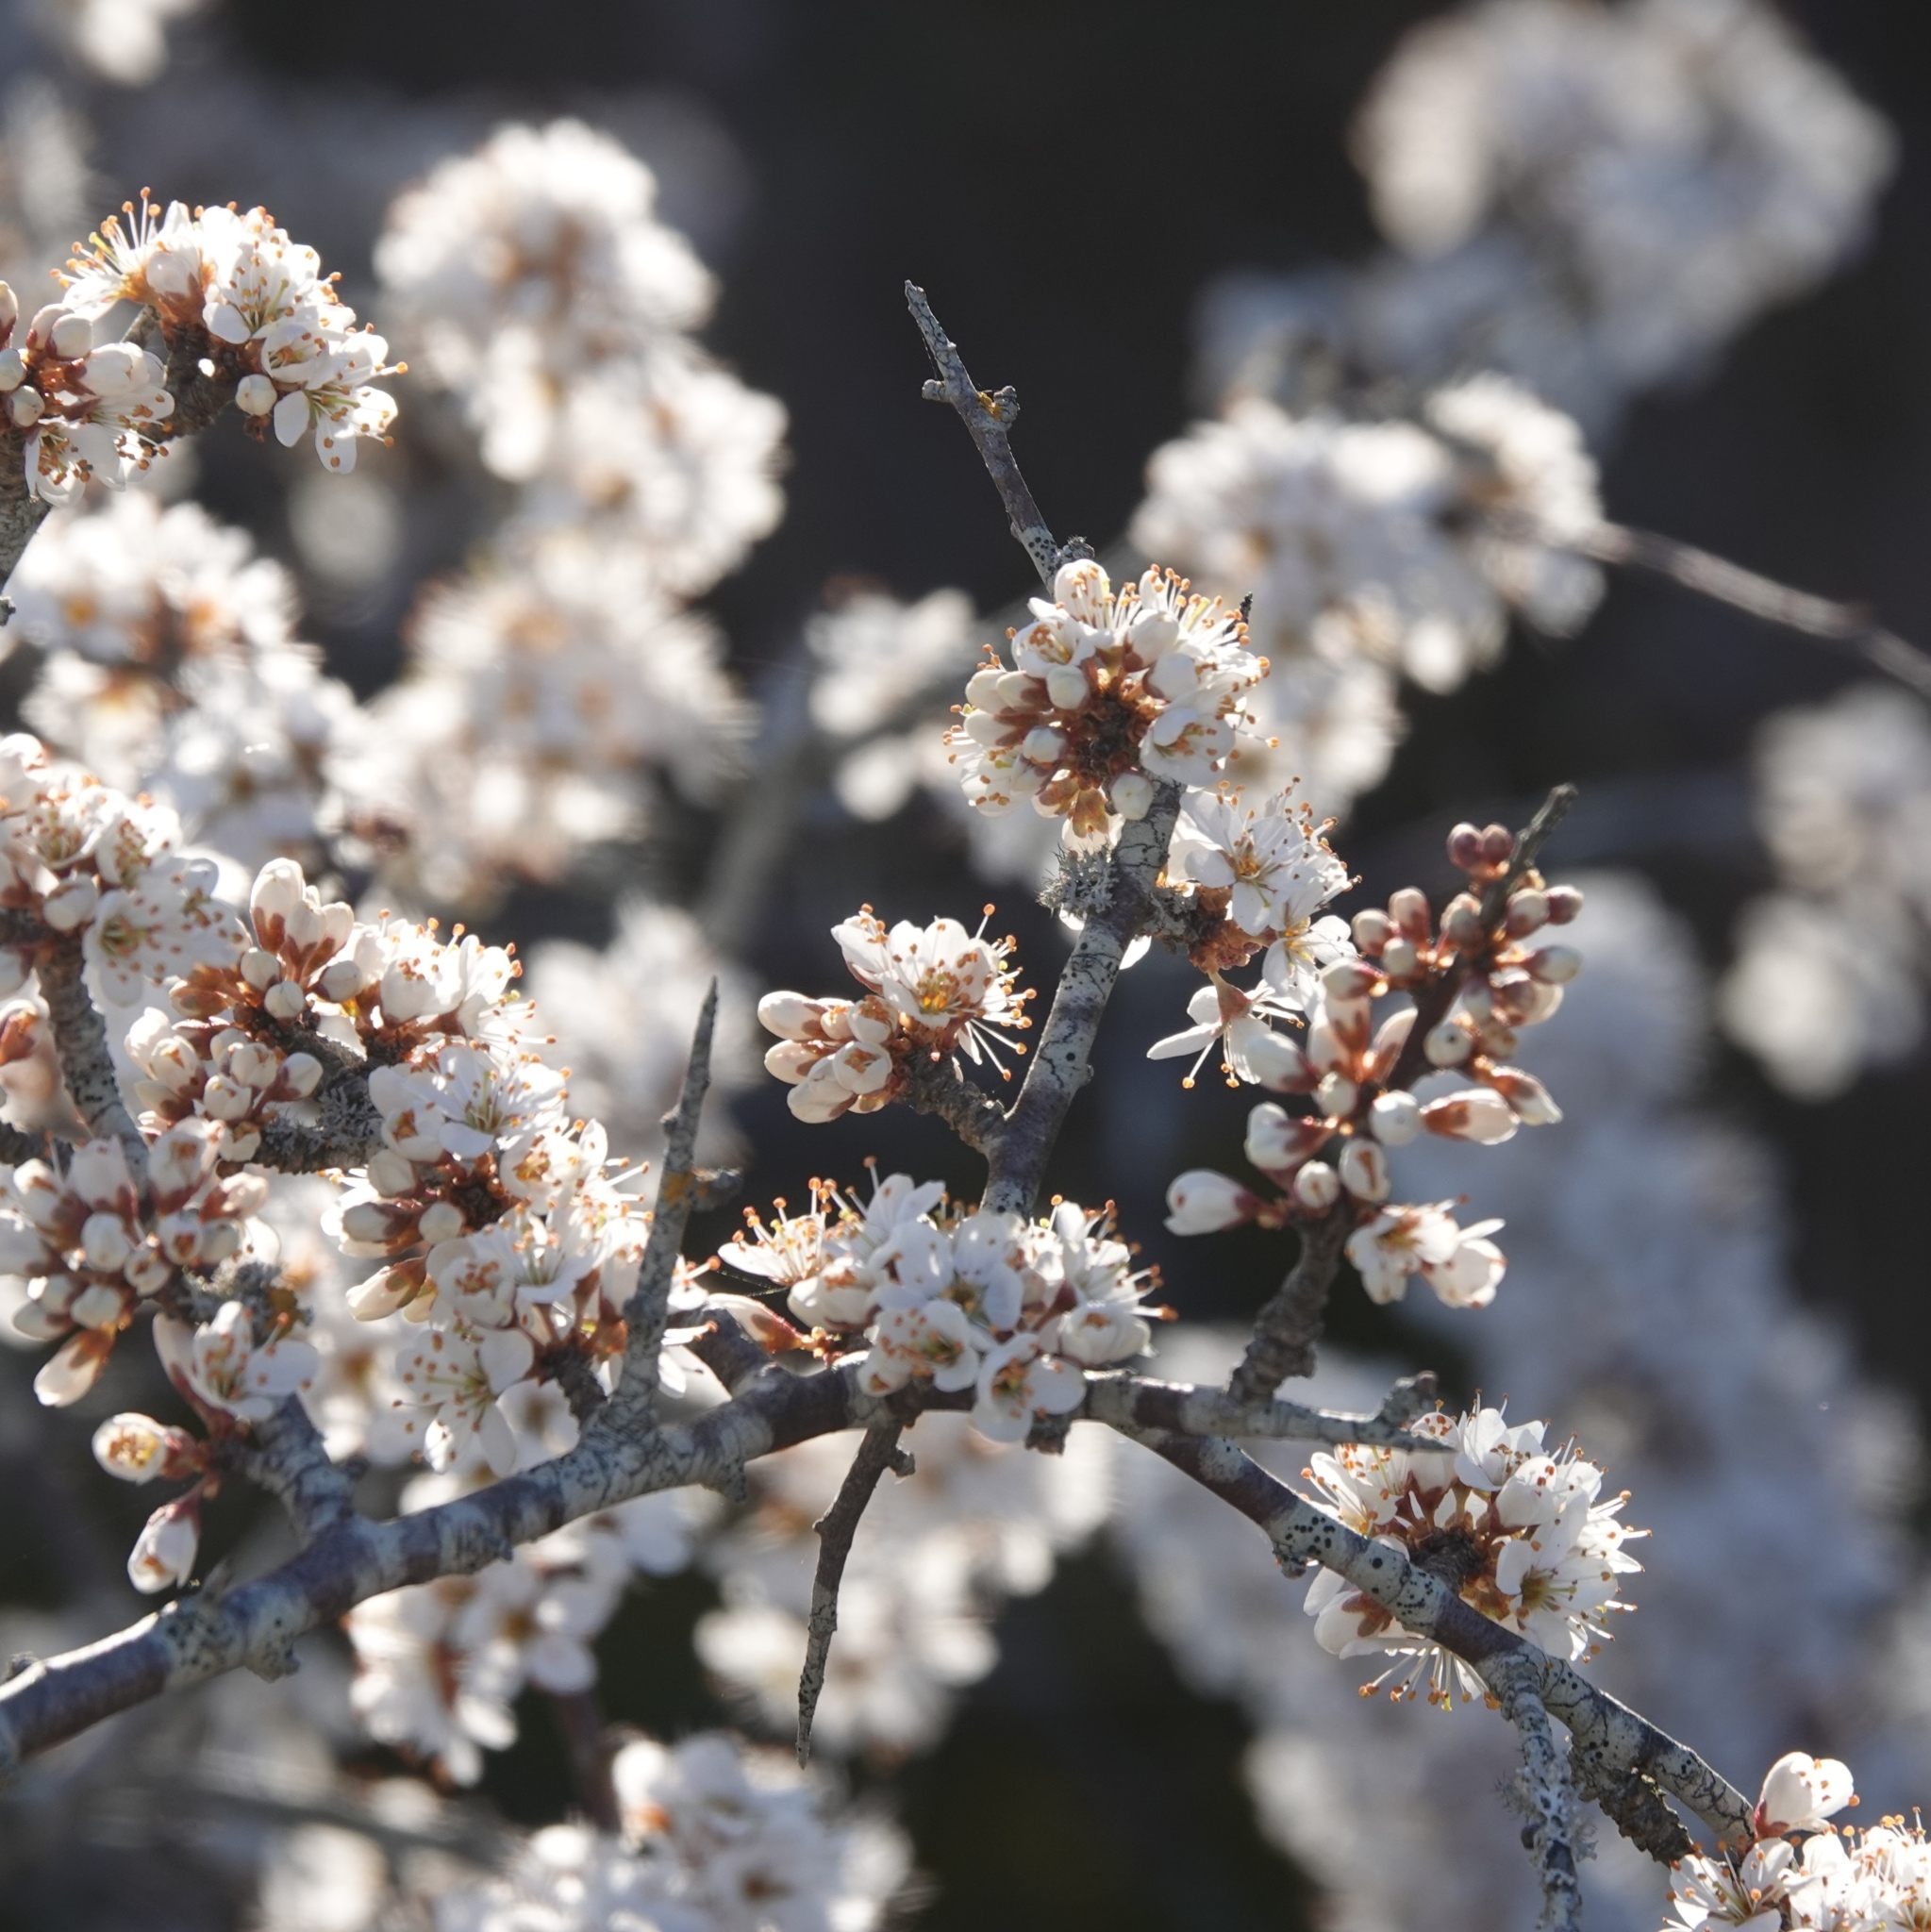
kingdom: Plantae
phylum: Tracheophyta
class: Magnoliopsida
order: Rosales
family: Rosaceae
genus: Prunus
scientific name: Prunus spinosa
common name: Blackthorn
